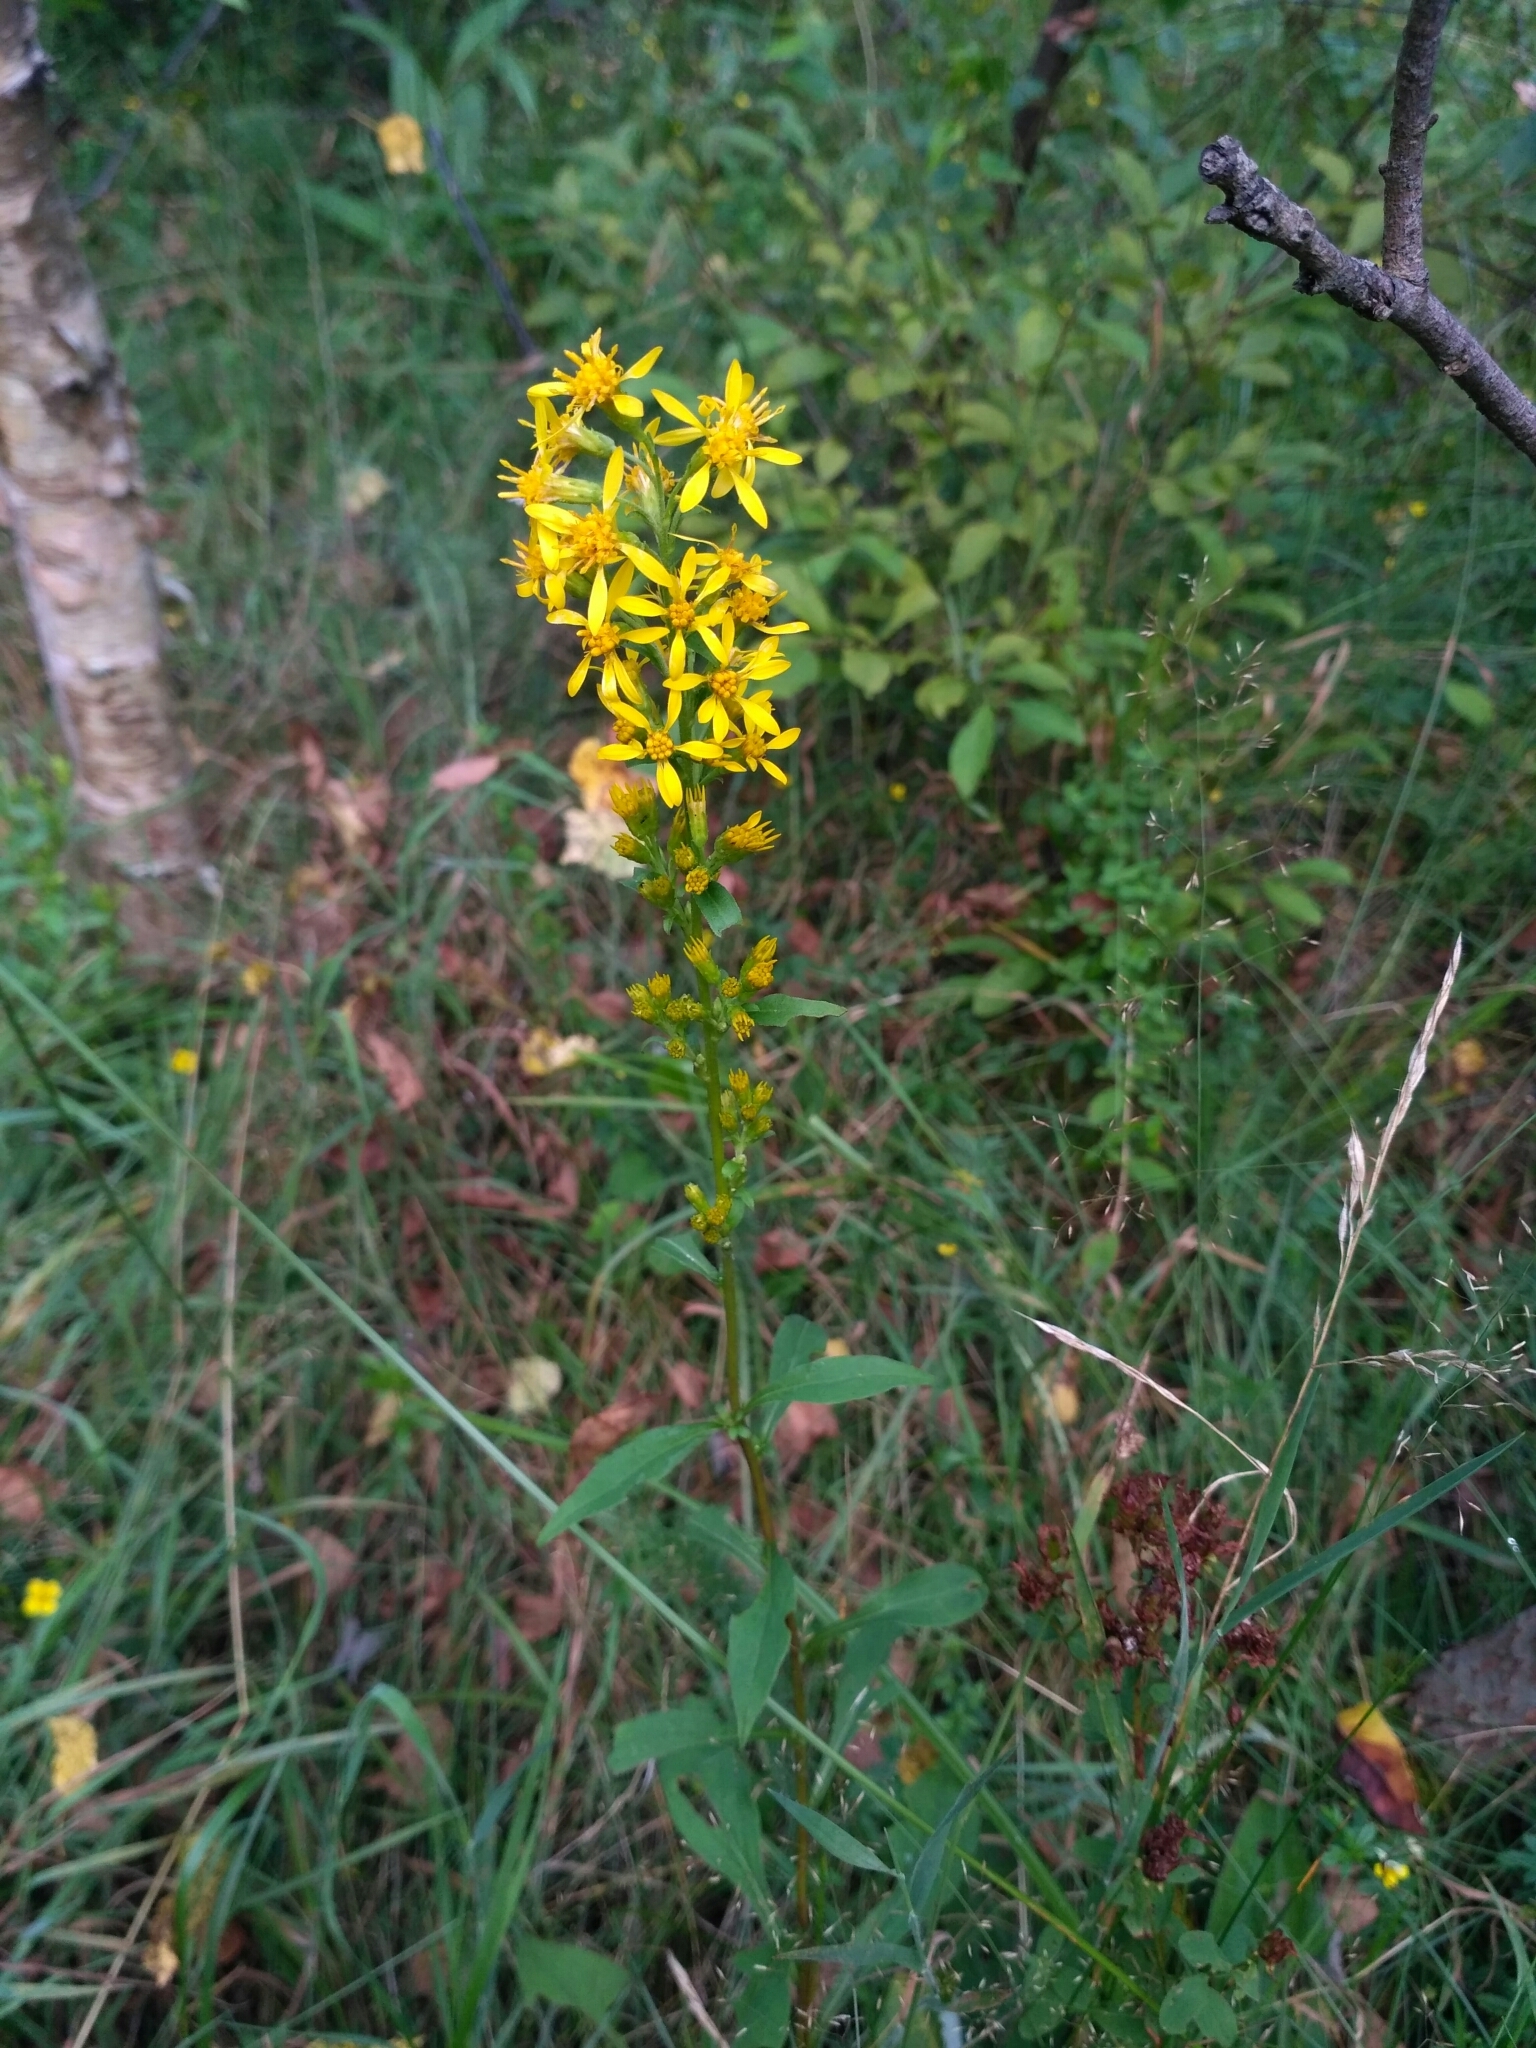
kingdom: Plantae
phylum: Tracheophyta
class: Magnoliopsida
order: Asterales
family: Asteraceae
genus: Solidago
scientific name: Solidago virgaurea
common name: Goldenrod
